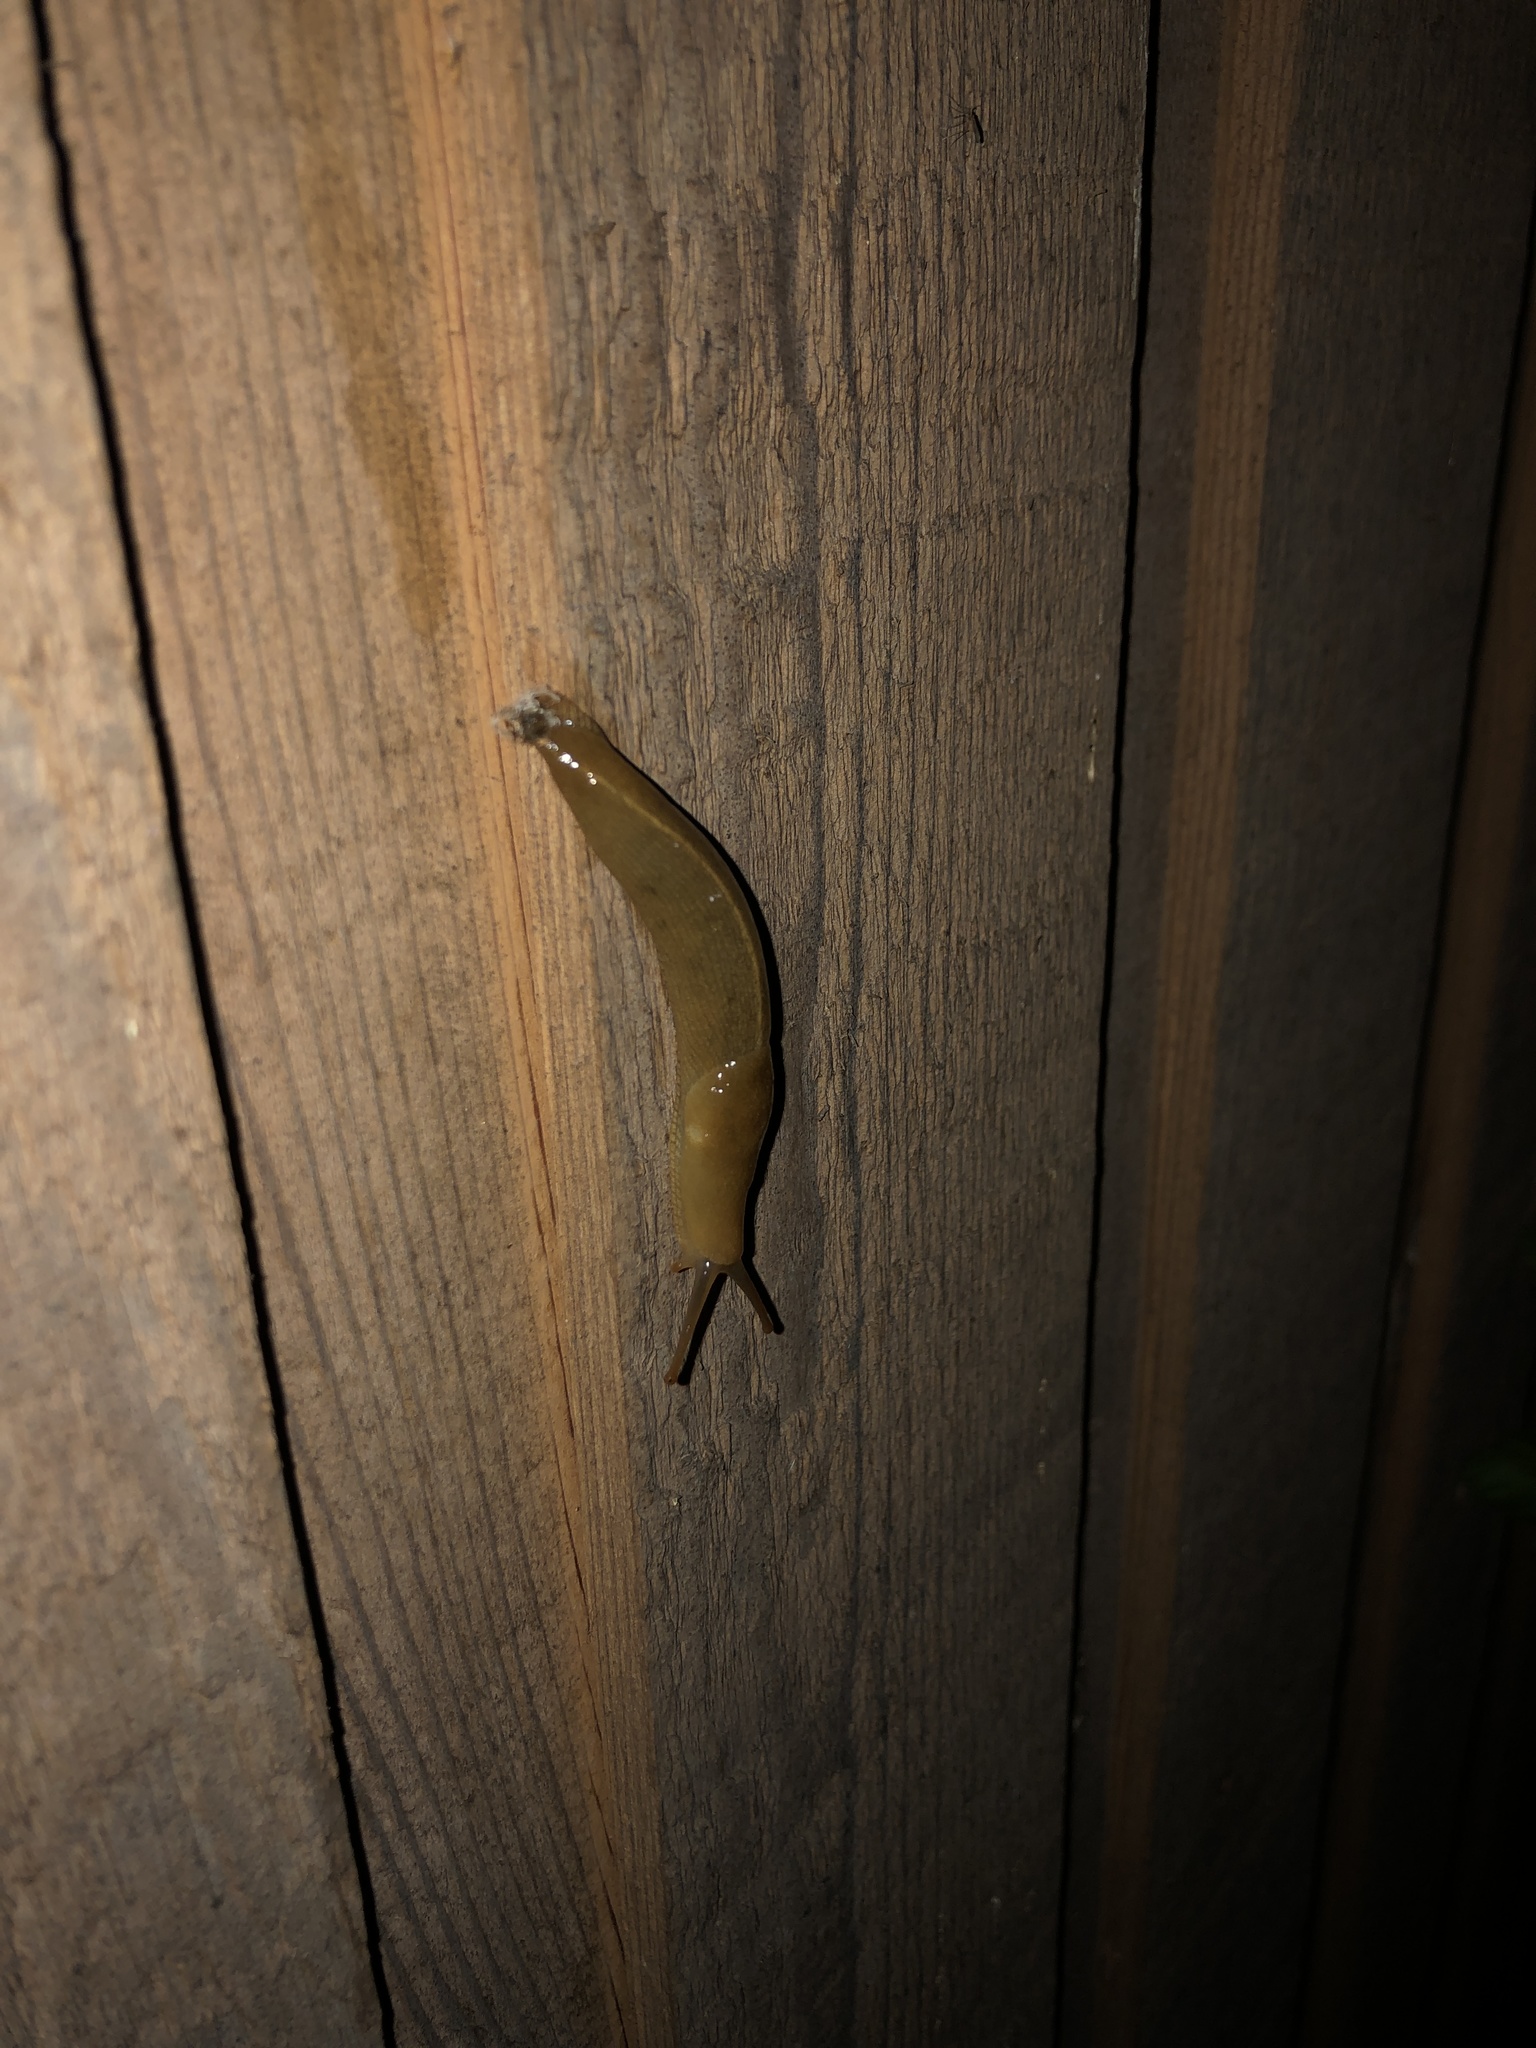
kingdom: Animalia
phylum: Mollusca
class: Gastropoda
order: Stylommatophora
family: Ariolimacidae
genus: Ariolimax
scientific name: Ariolimax columbianus
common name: Pacific banana slug
